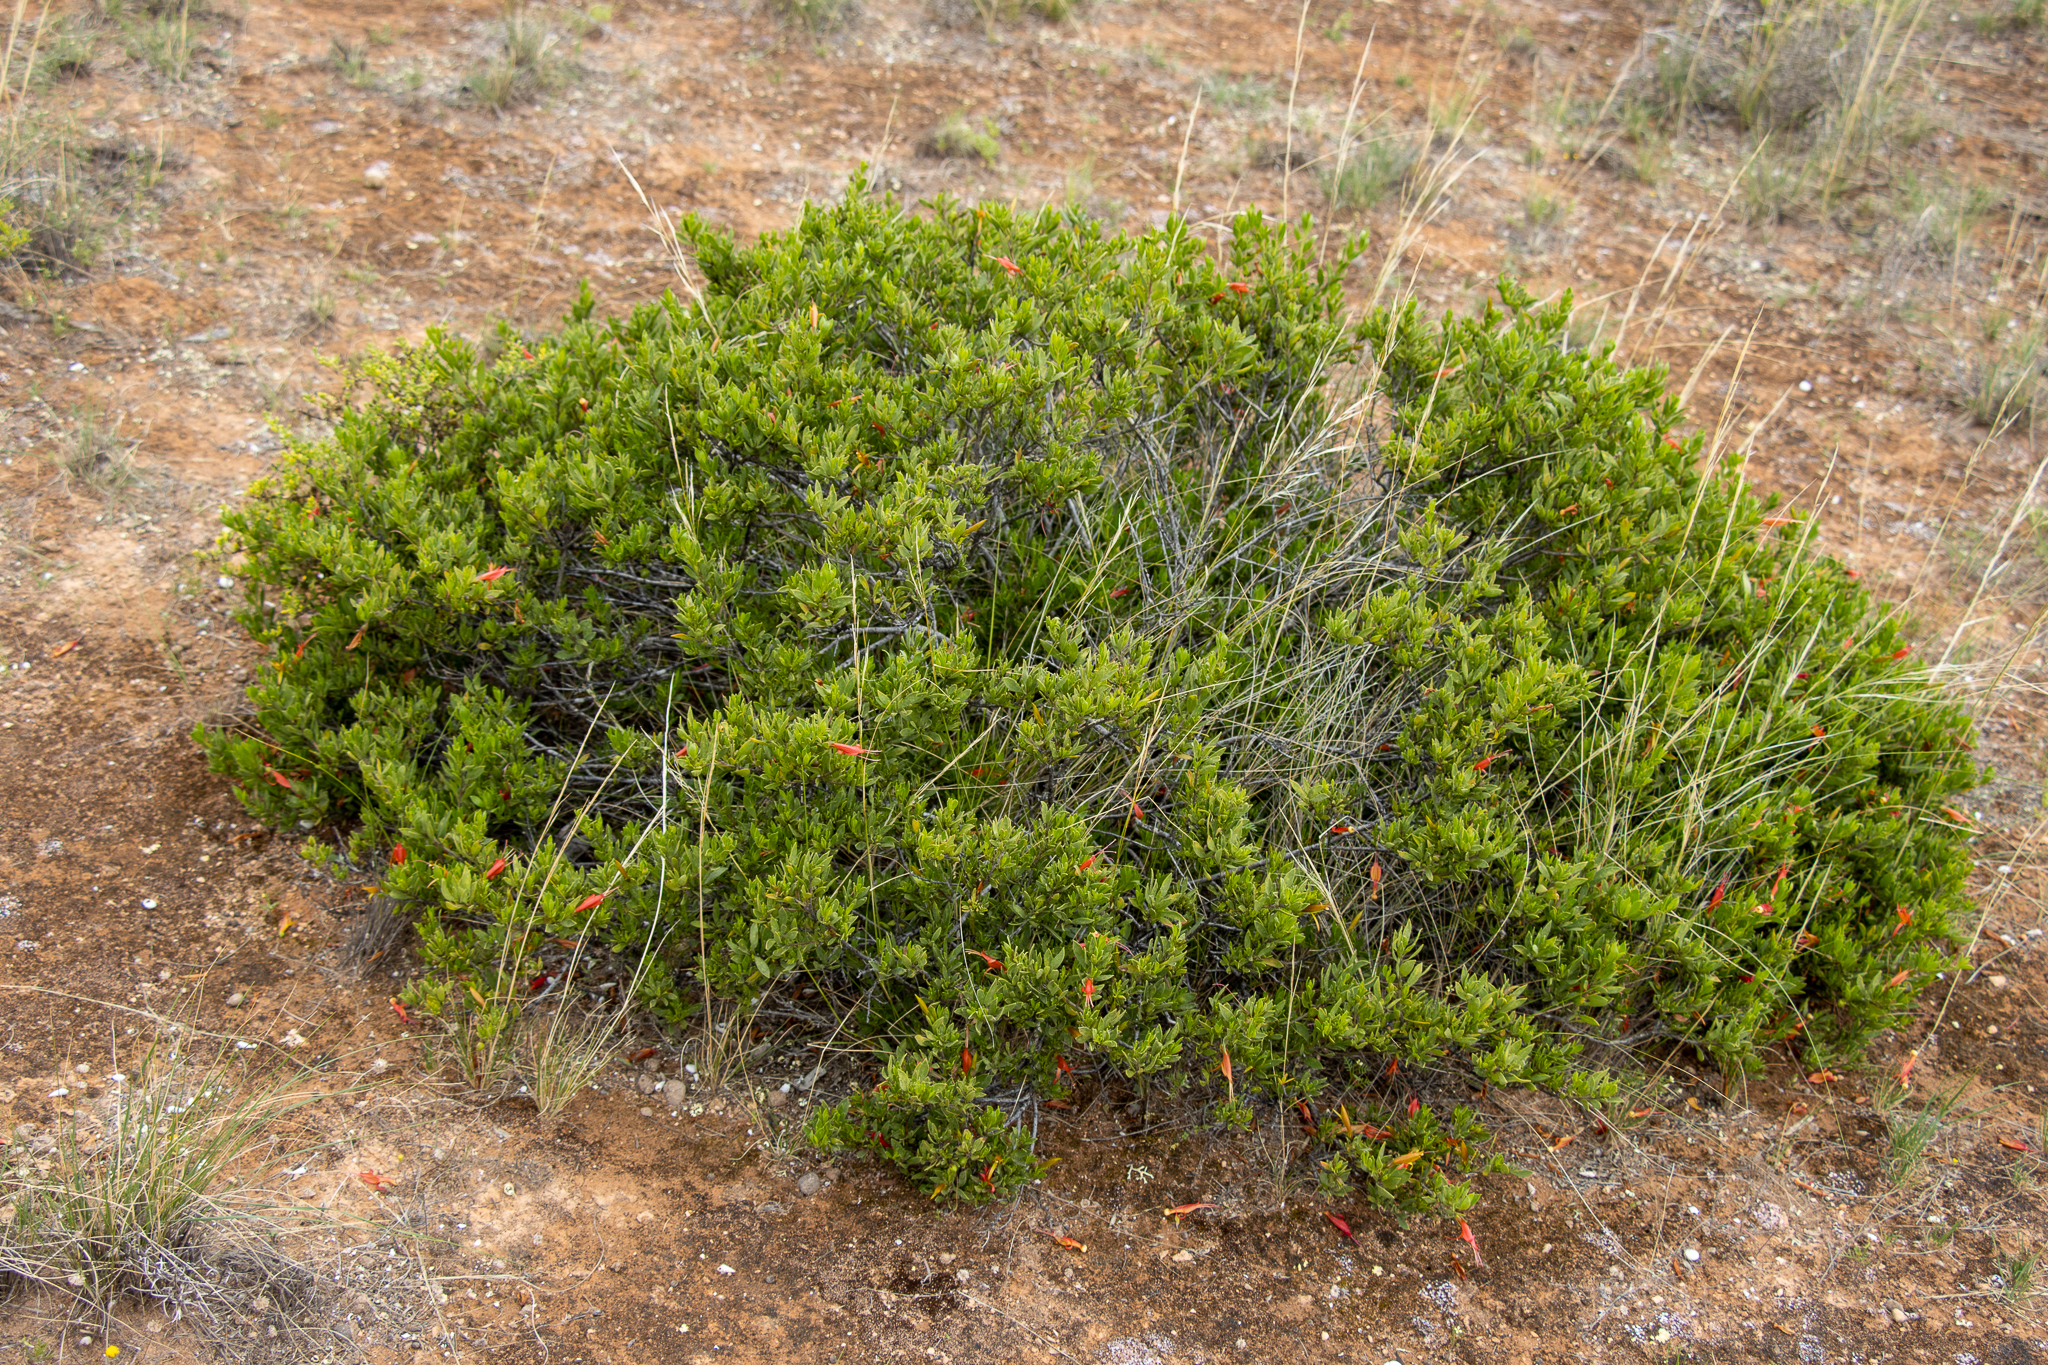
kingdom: Plantae
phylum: Tracheophyta
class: Magnoliopsida
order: Lamiales
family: Scrophulariaceae
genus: Eremophila
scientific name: Eremophila glabra
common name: Black-fuchsia
